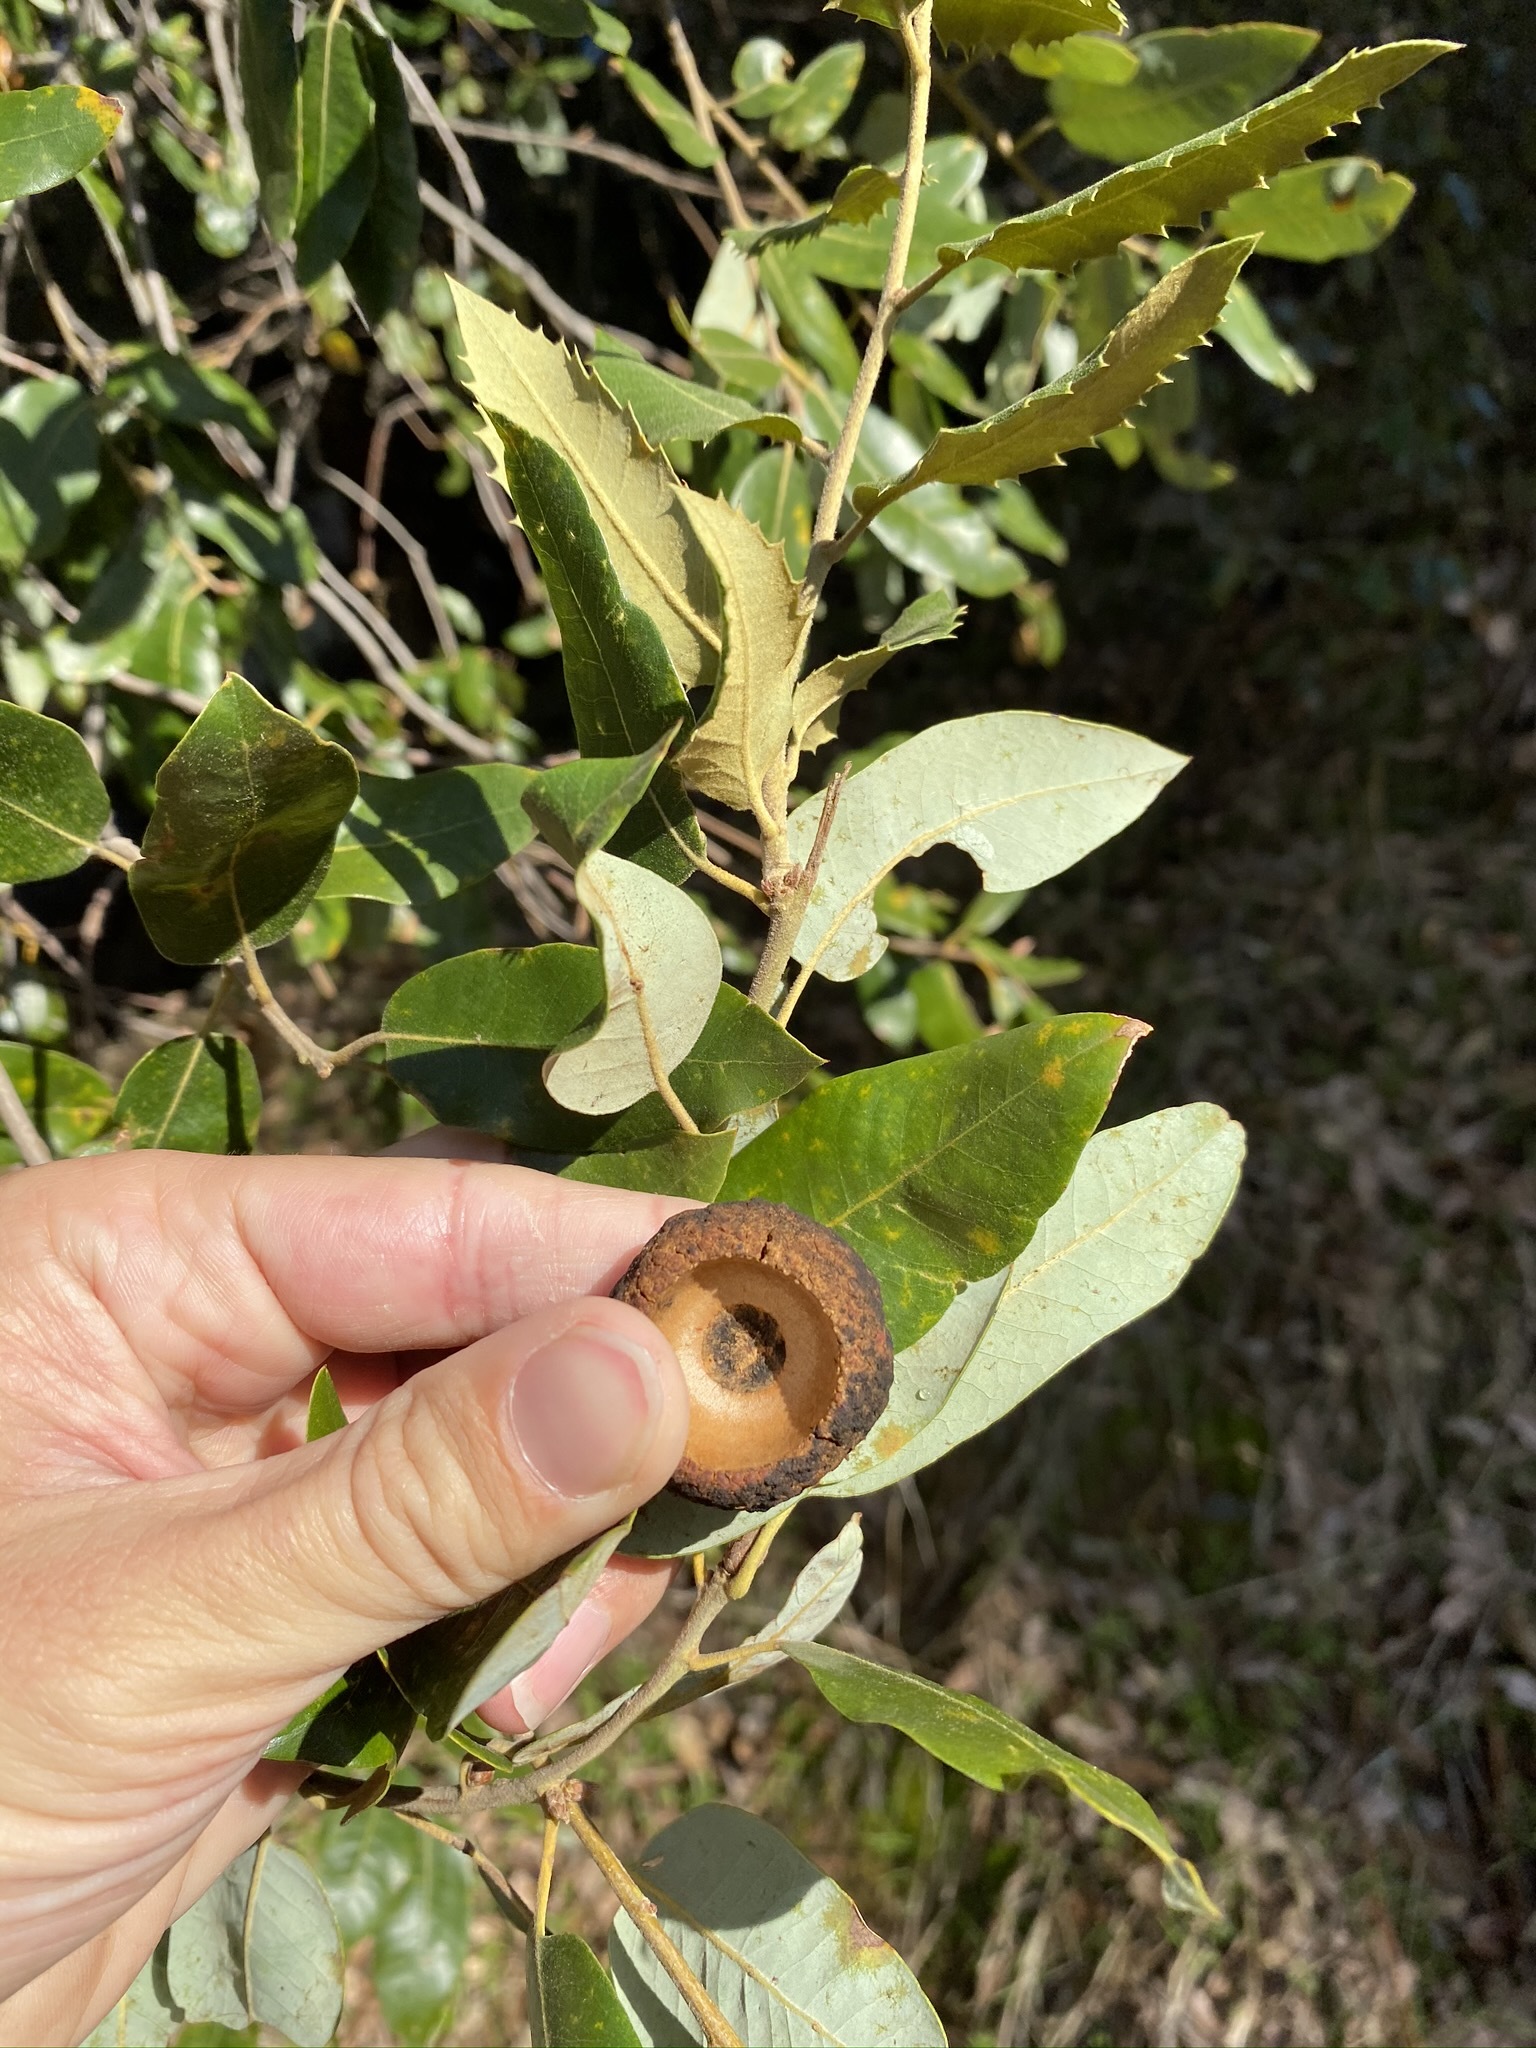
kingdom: Plantae
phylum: Tracheophyta
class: Magnoliopsida
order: Fagales
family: Fagaceae
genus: Quercus
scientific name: Quercus chrysolepis
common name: Canyon live oak
